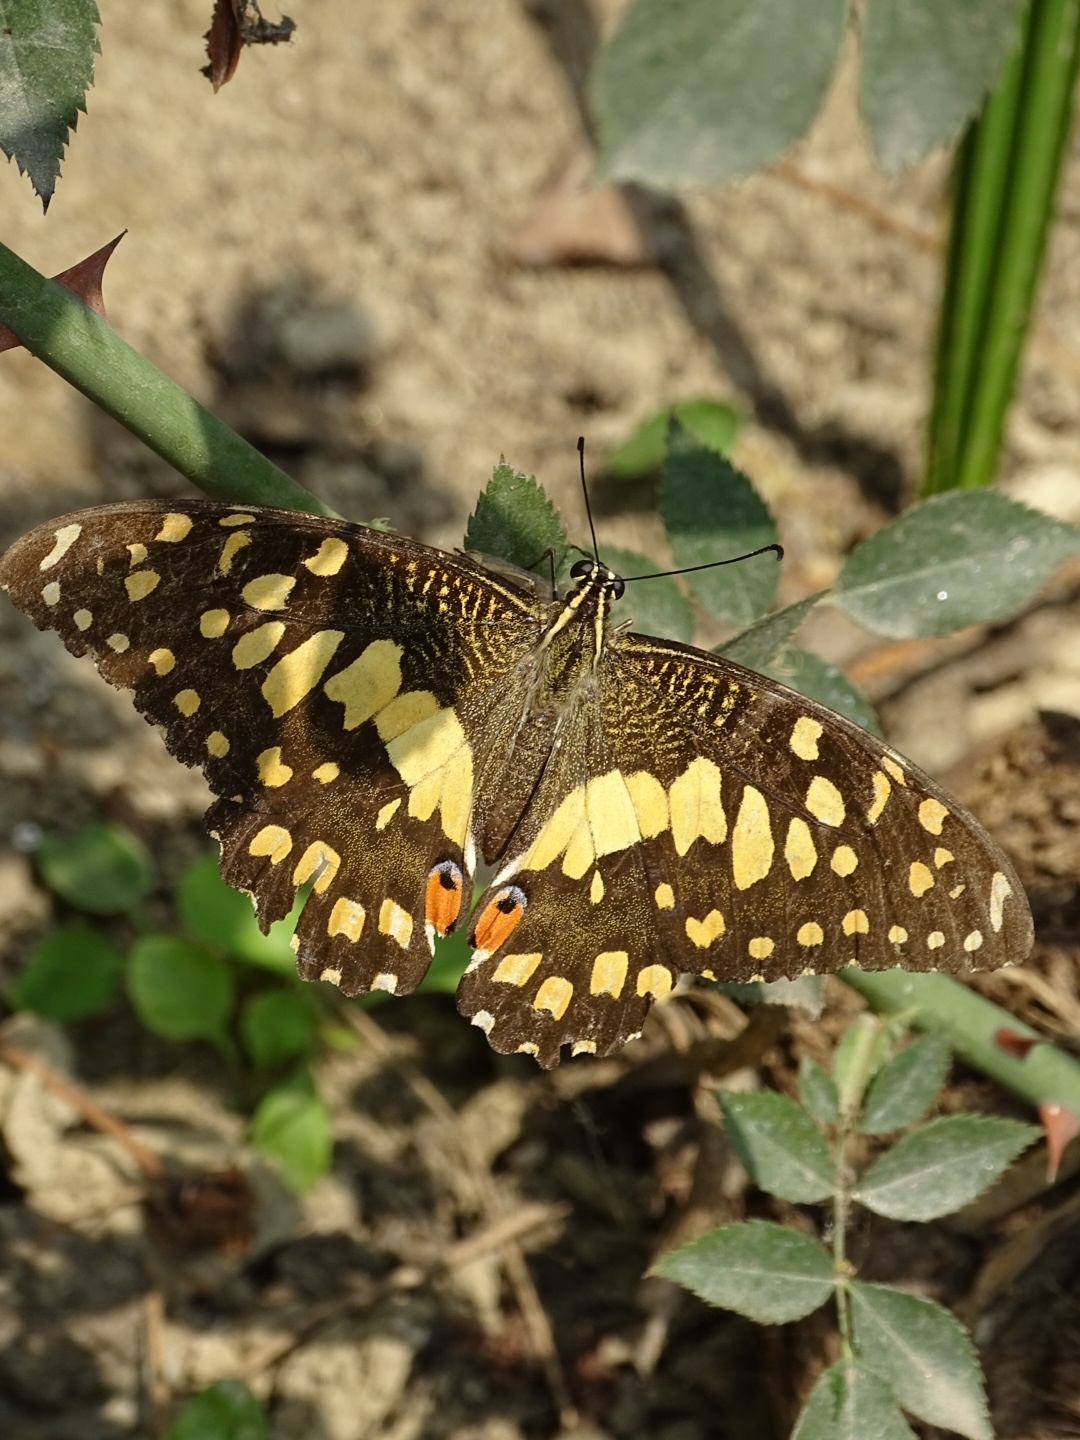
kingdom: Animalia
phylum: Arthropoda
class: Insecta
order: Lepidoptera
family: Papilionidae
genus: Papilio
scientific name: Papilio demoleus
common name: Lime butterfly
